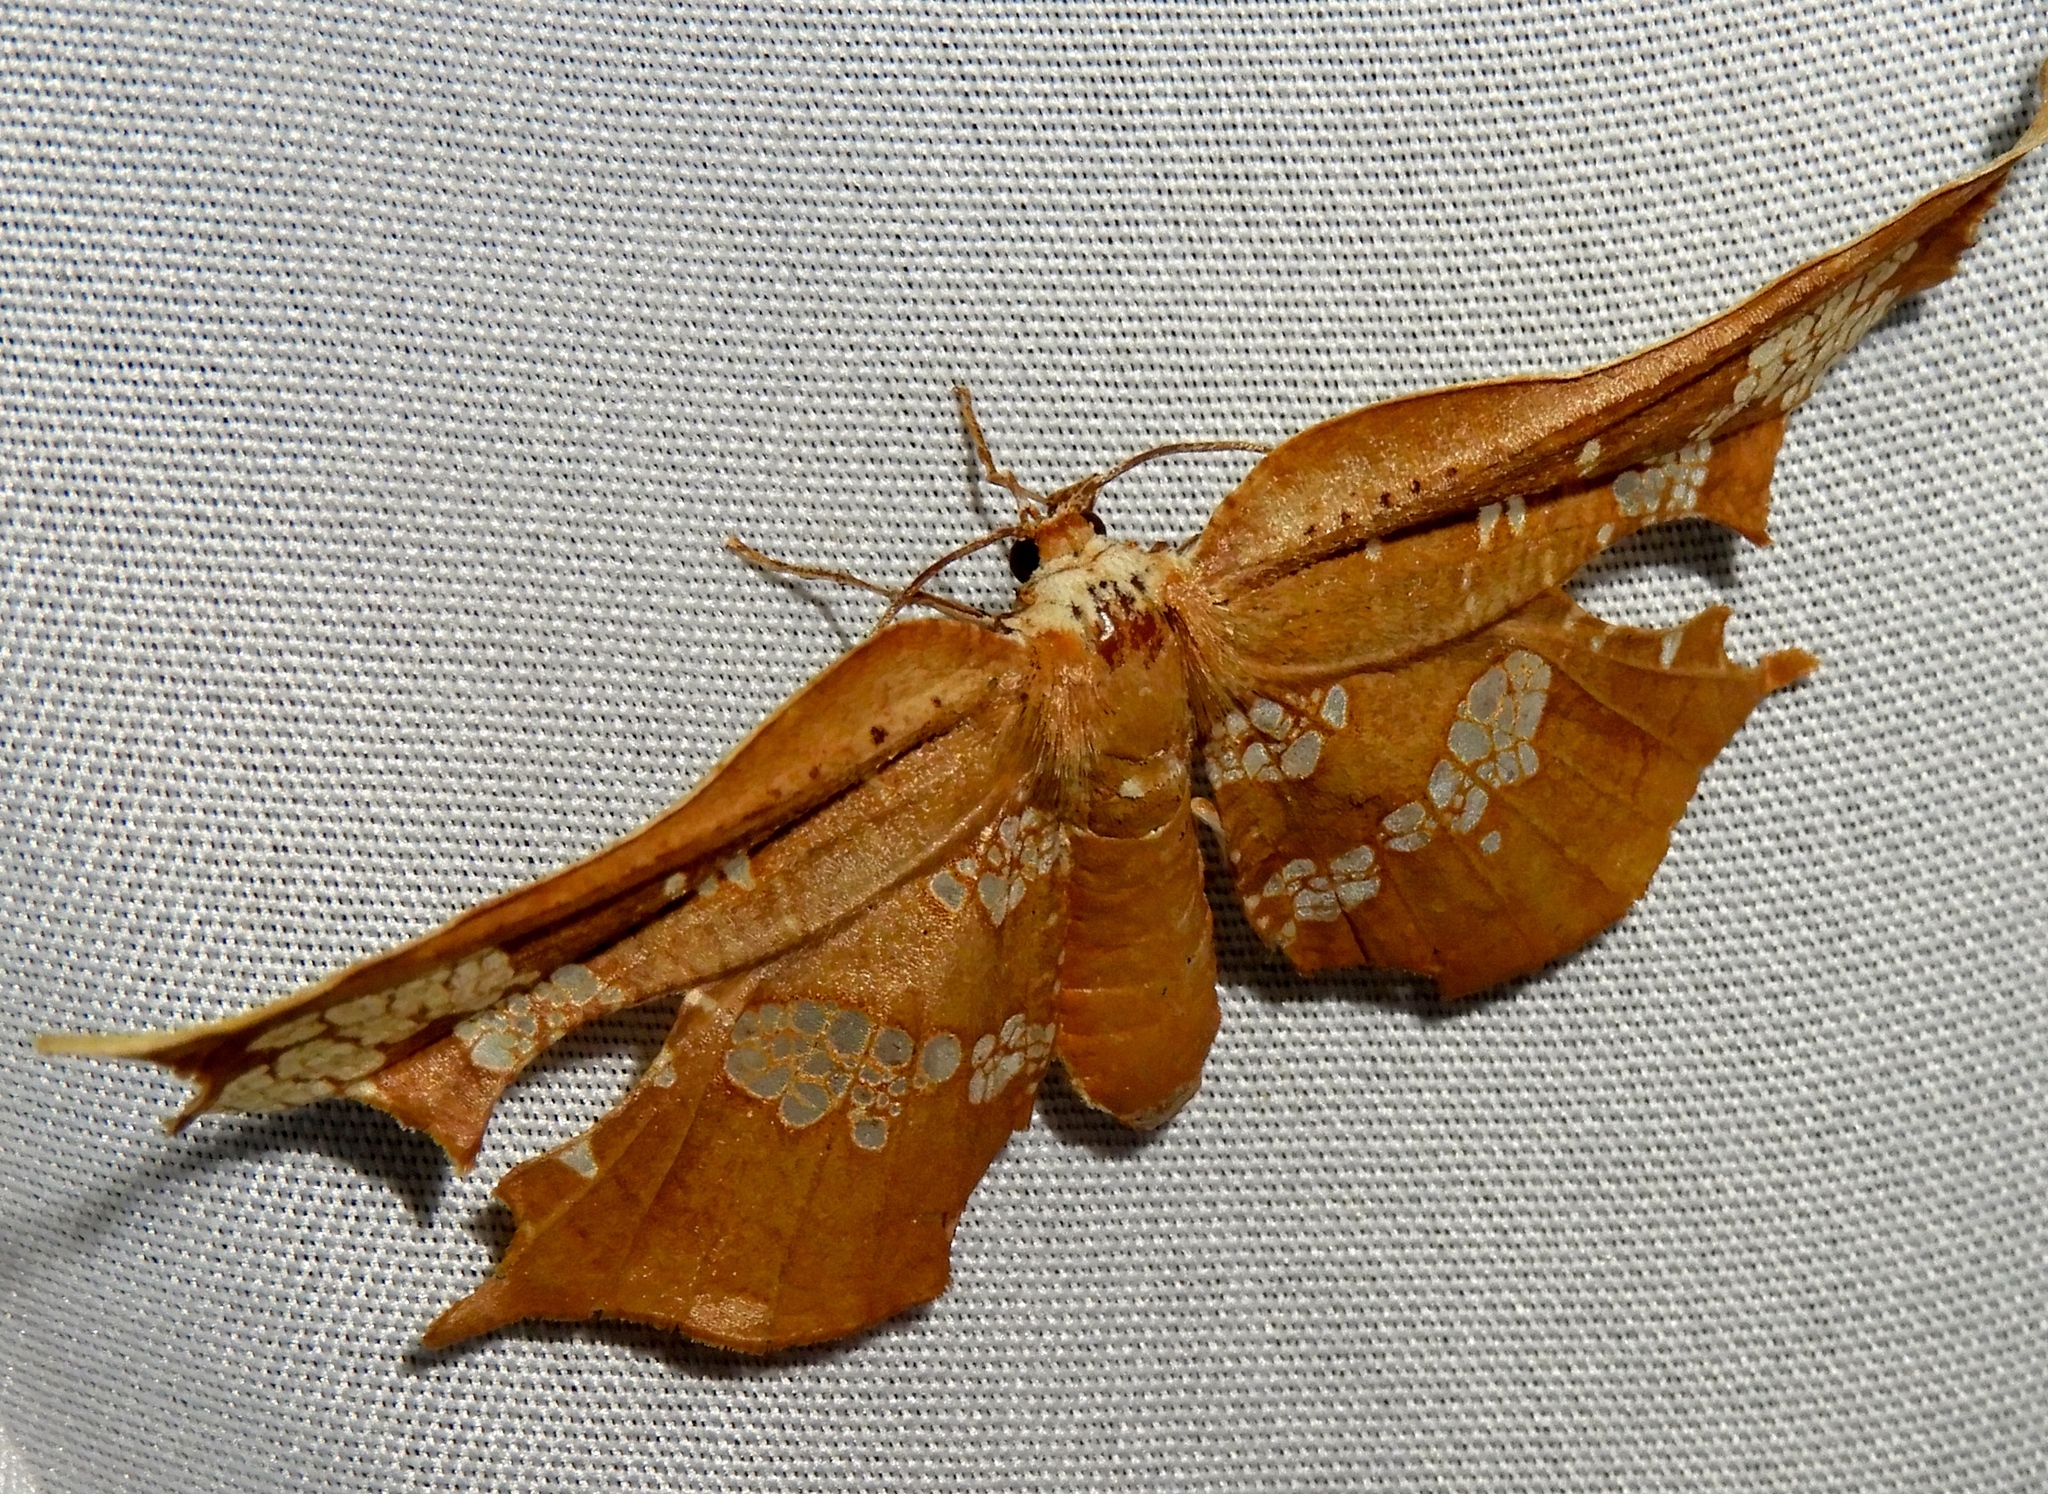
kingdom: Animalia
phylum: Arthropoda
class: Insecta
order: Lepidoptera
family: Thyrididae
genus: Draconia
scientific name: Draconia rusina
